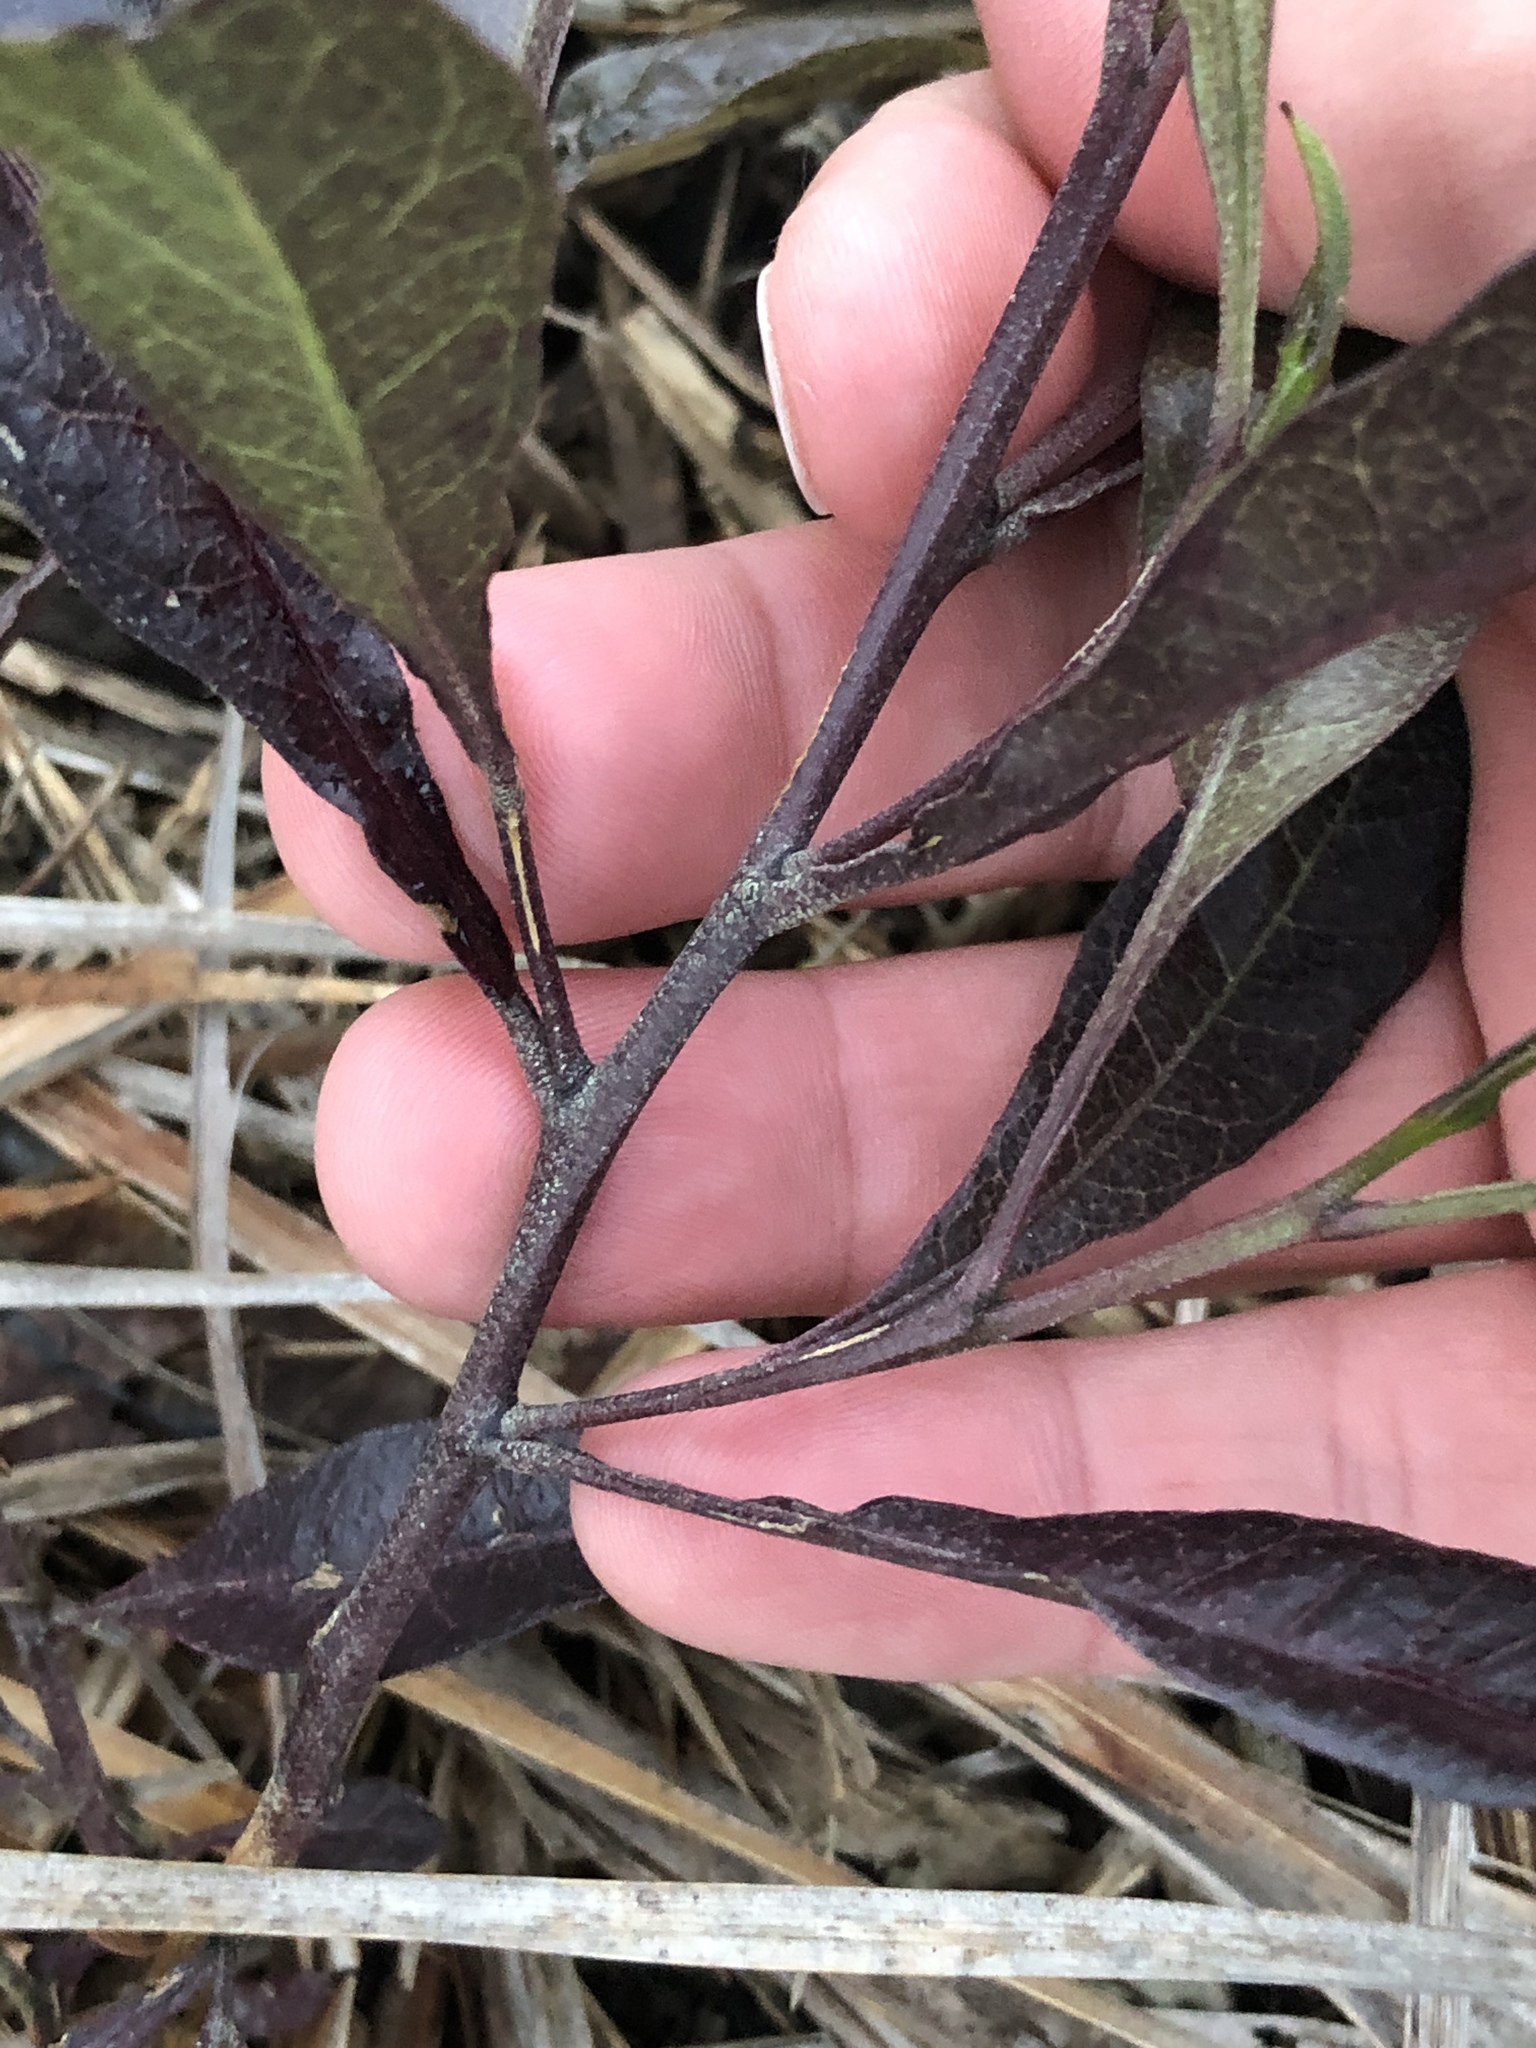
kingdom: Plantae
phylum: Tracheophyta
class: Magnoliopsida
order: Sapindales
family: Sapindaceae
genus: Dodonaea
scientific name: Dodonaea viscosa
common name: Hopbush
